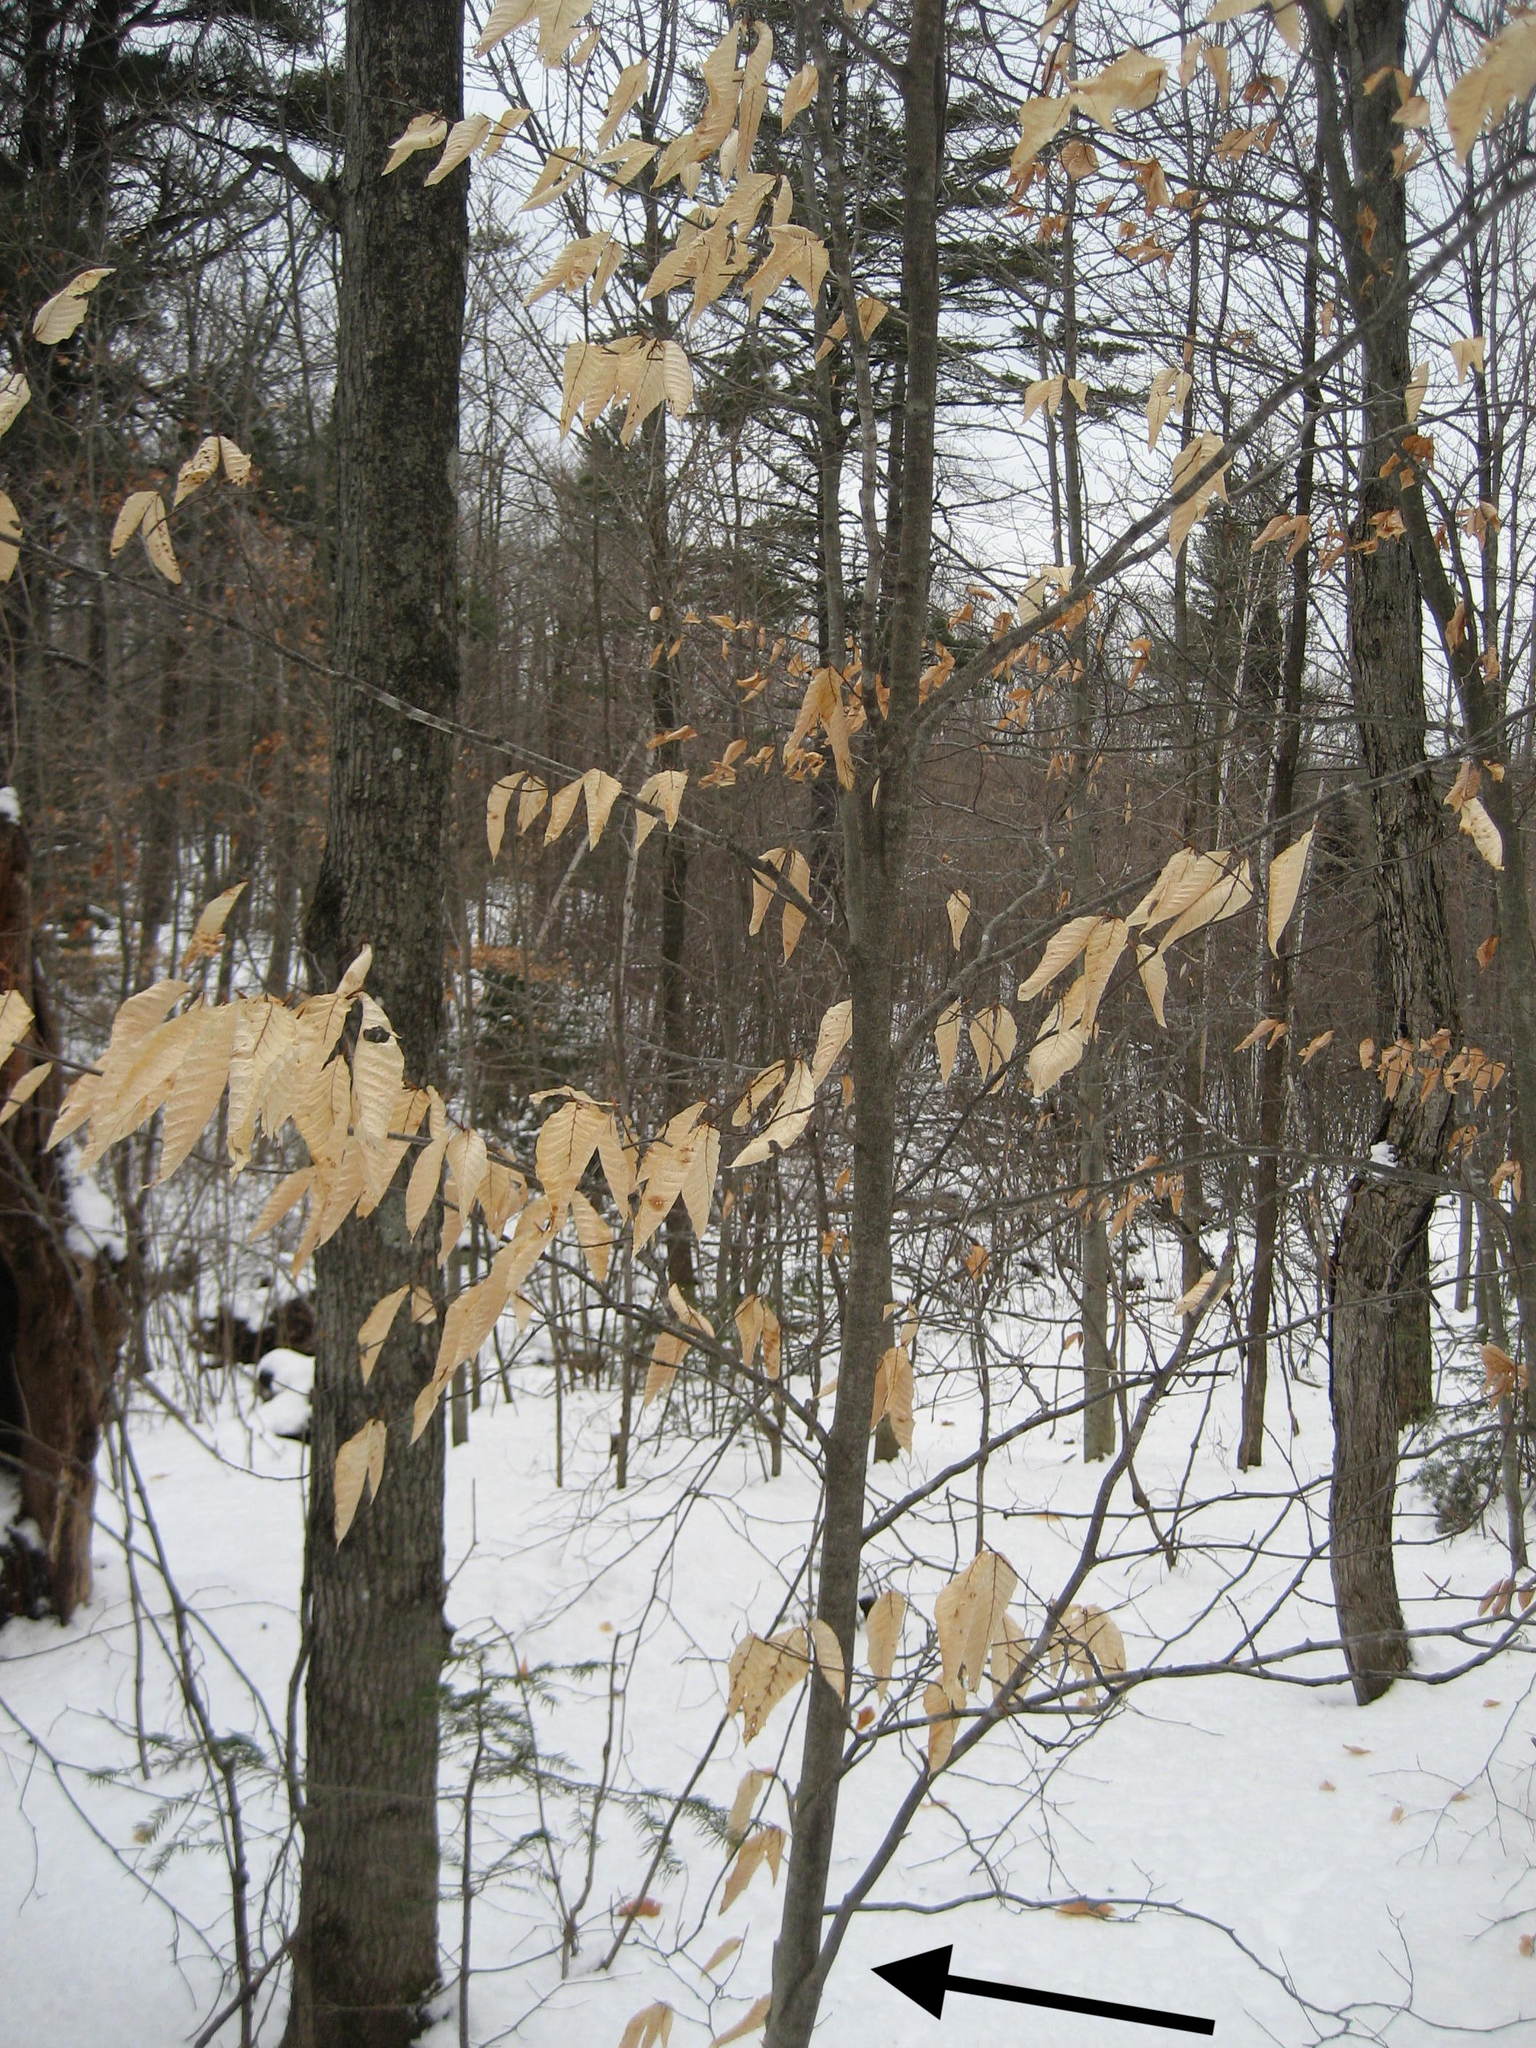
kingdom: Plantae
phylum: Tracheophyta
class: Magnoliopsida
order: Fagales
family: Fagaceae
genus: Fagus
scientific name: Fagus grandifolia
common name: American beech
